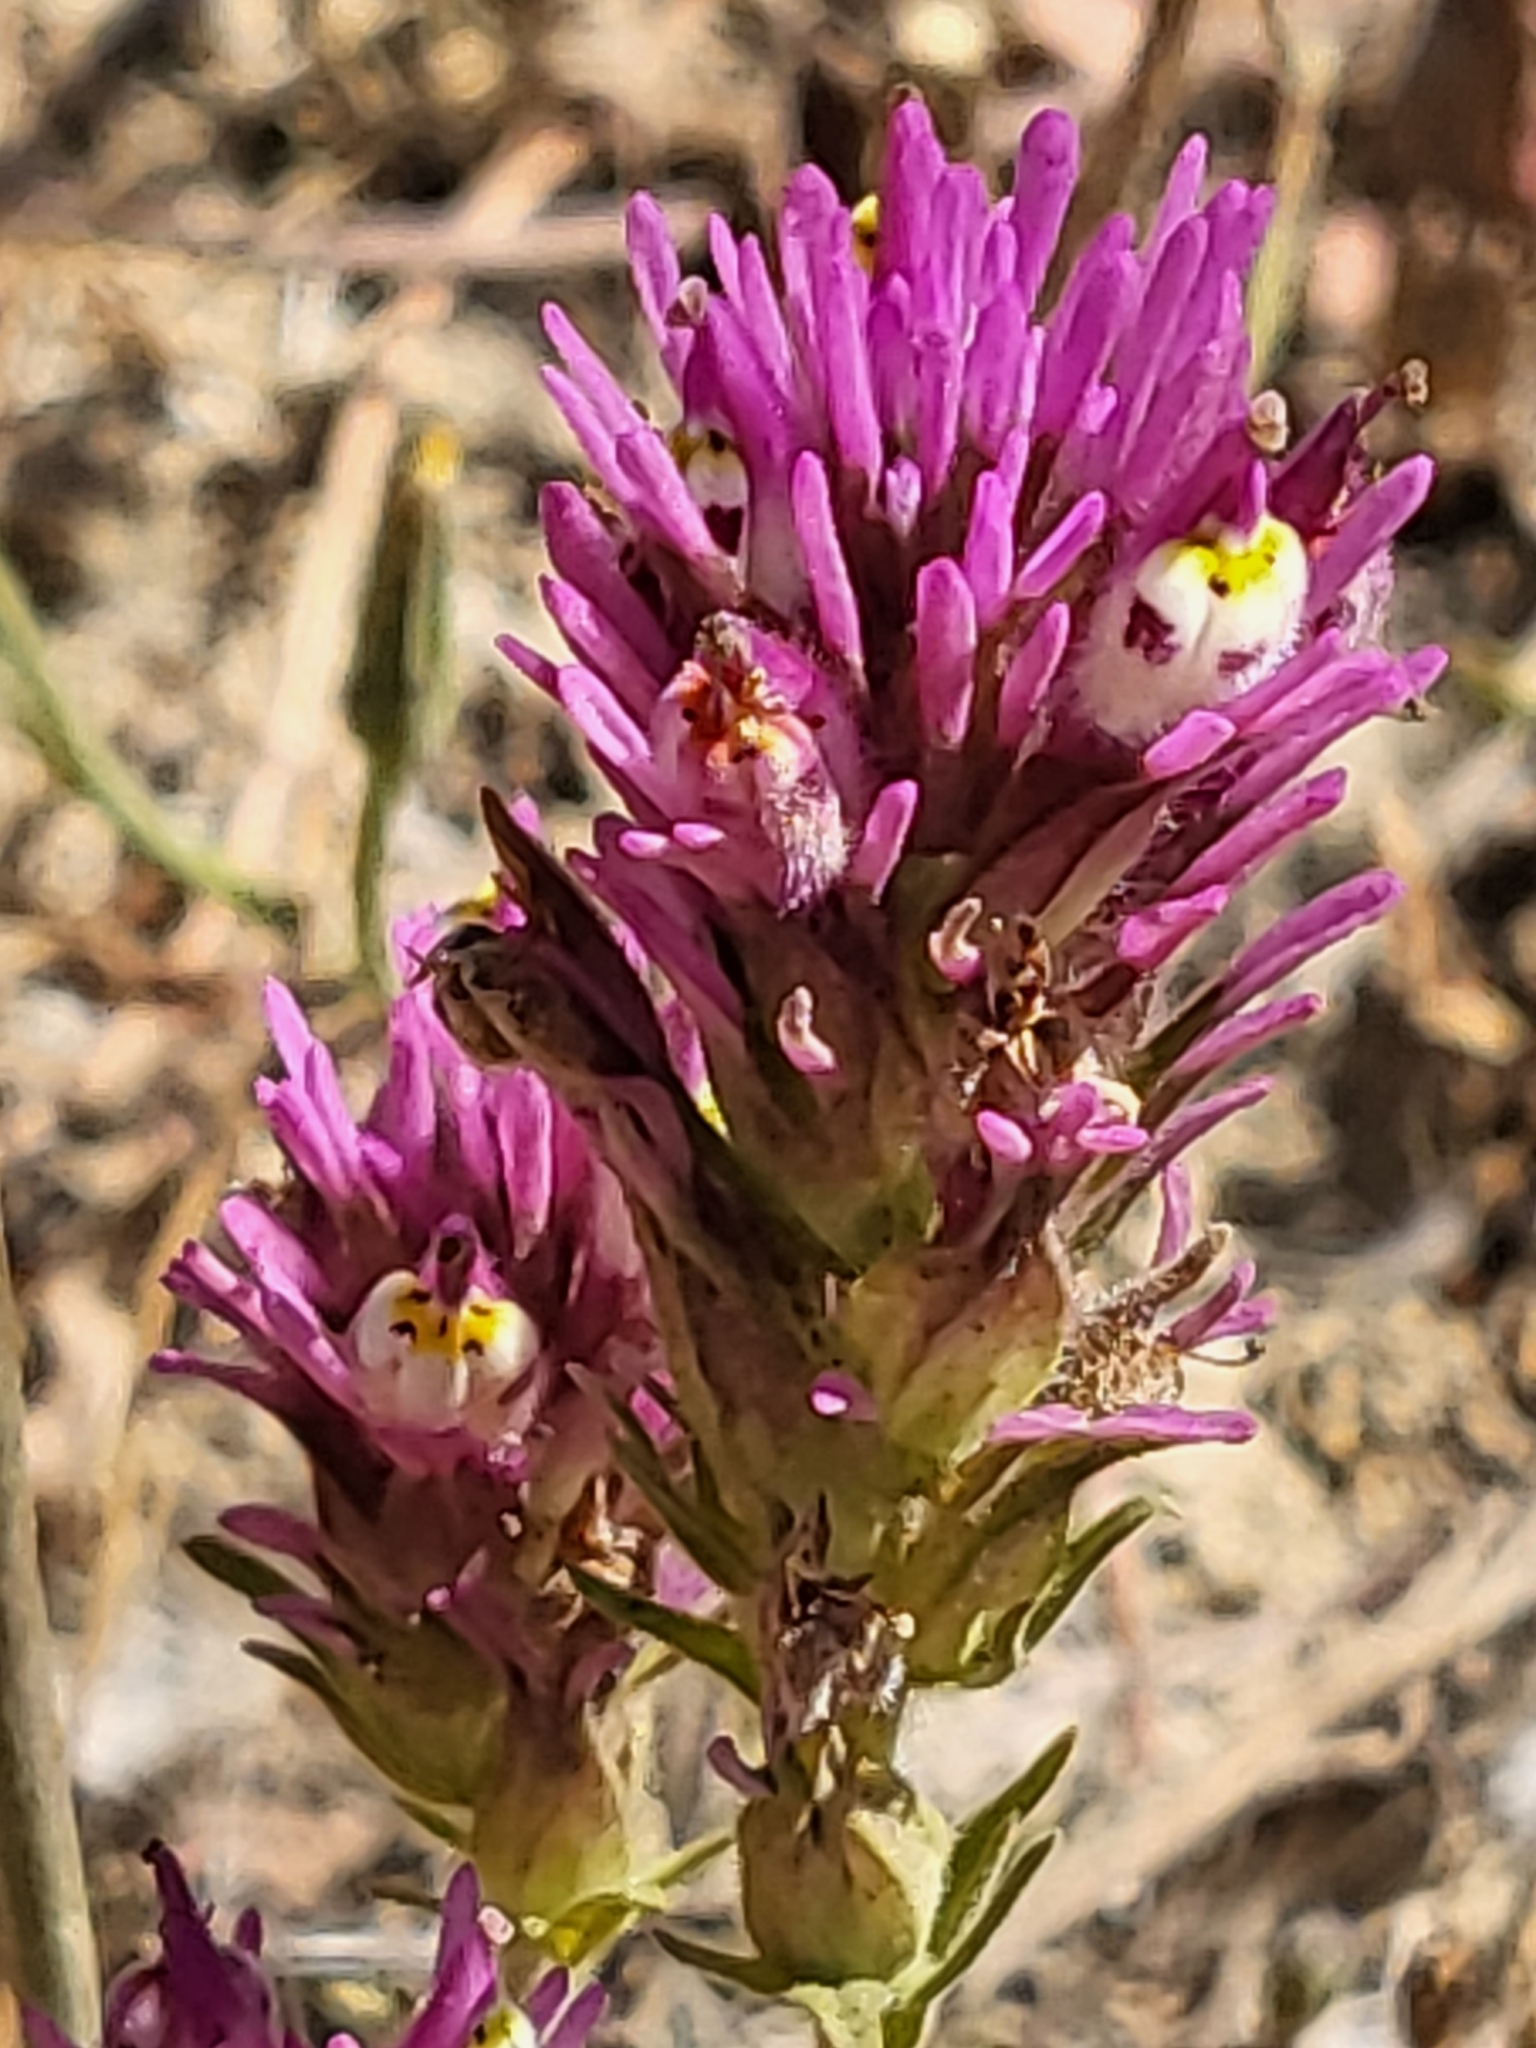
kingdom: Plantae
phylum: Tracheophyta
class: Magnoliopsida
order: Lamiales
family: Orobanchaceae
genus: Castilleja
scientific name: Castilleja densiflora
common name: Dense-flower indian paintbrush
